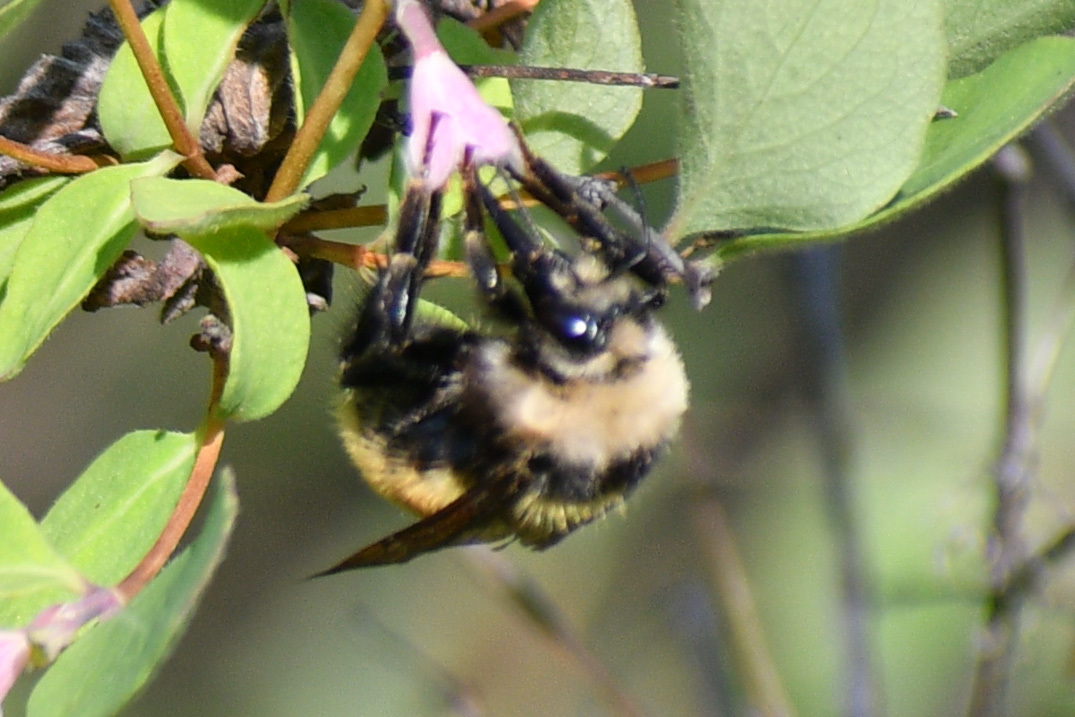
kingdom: Animalia
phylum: Arthropoda
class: Insecta
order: Hymenoptera
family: Apidae
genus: Bombus
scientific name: Bombus appositus
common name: White-shouldered bumble bee
